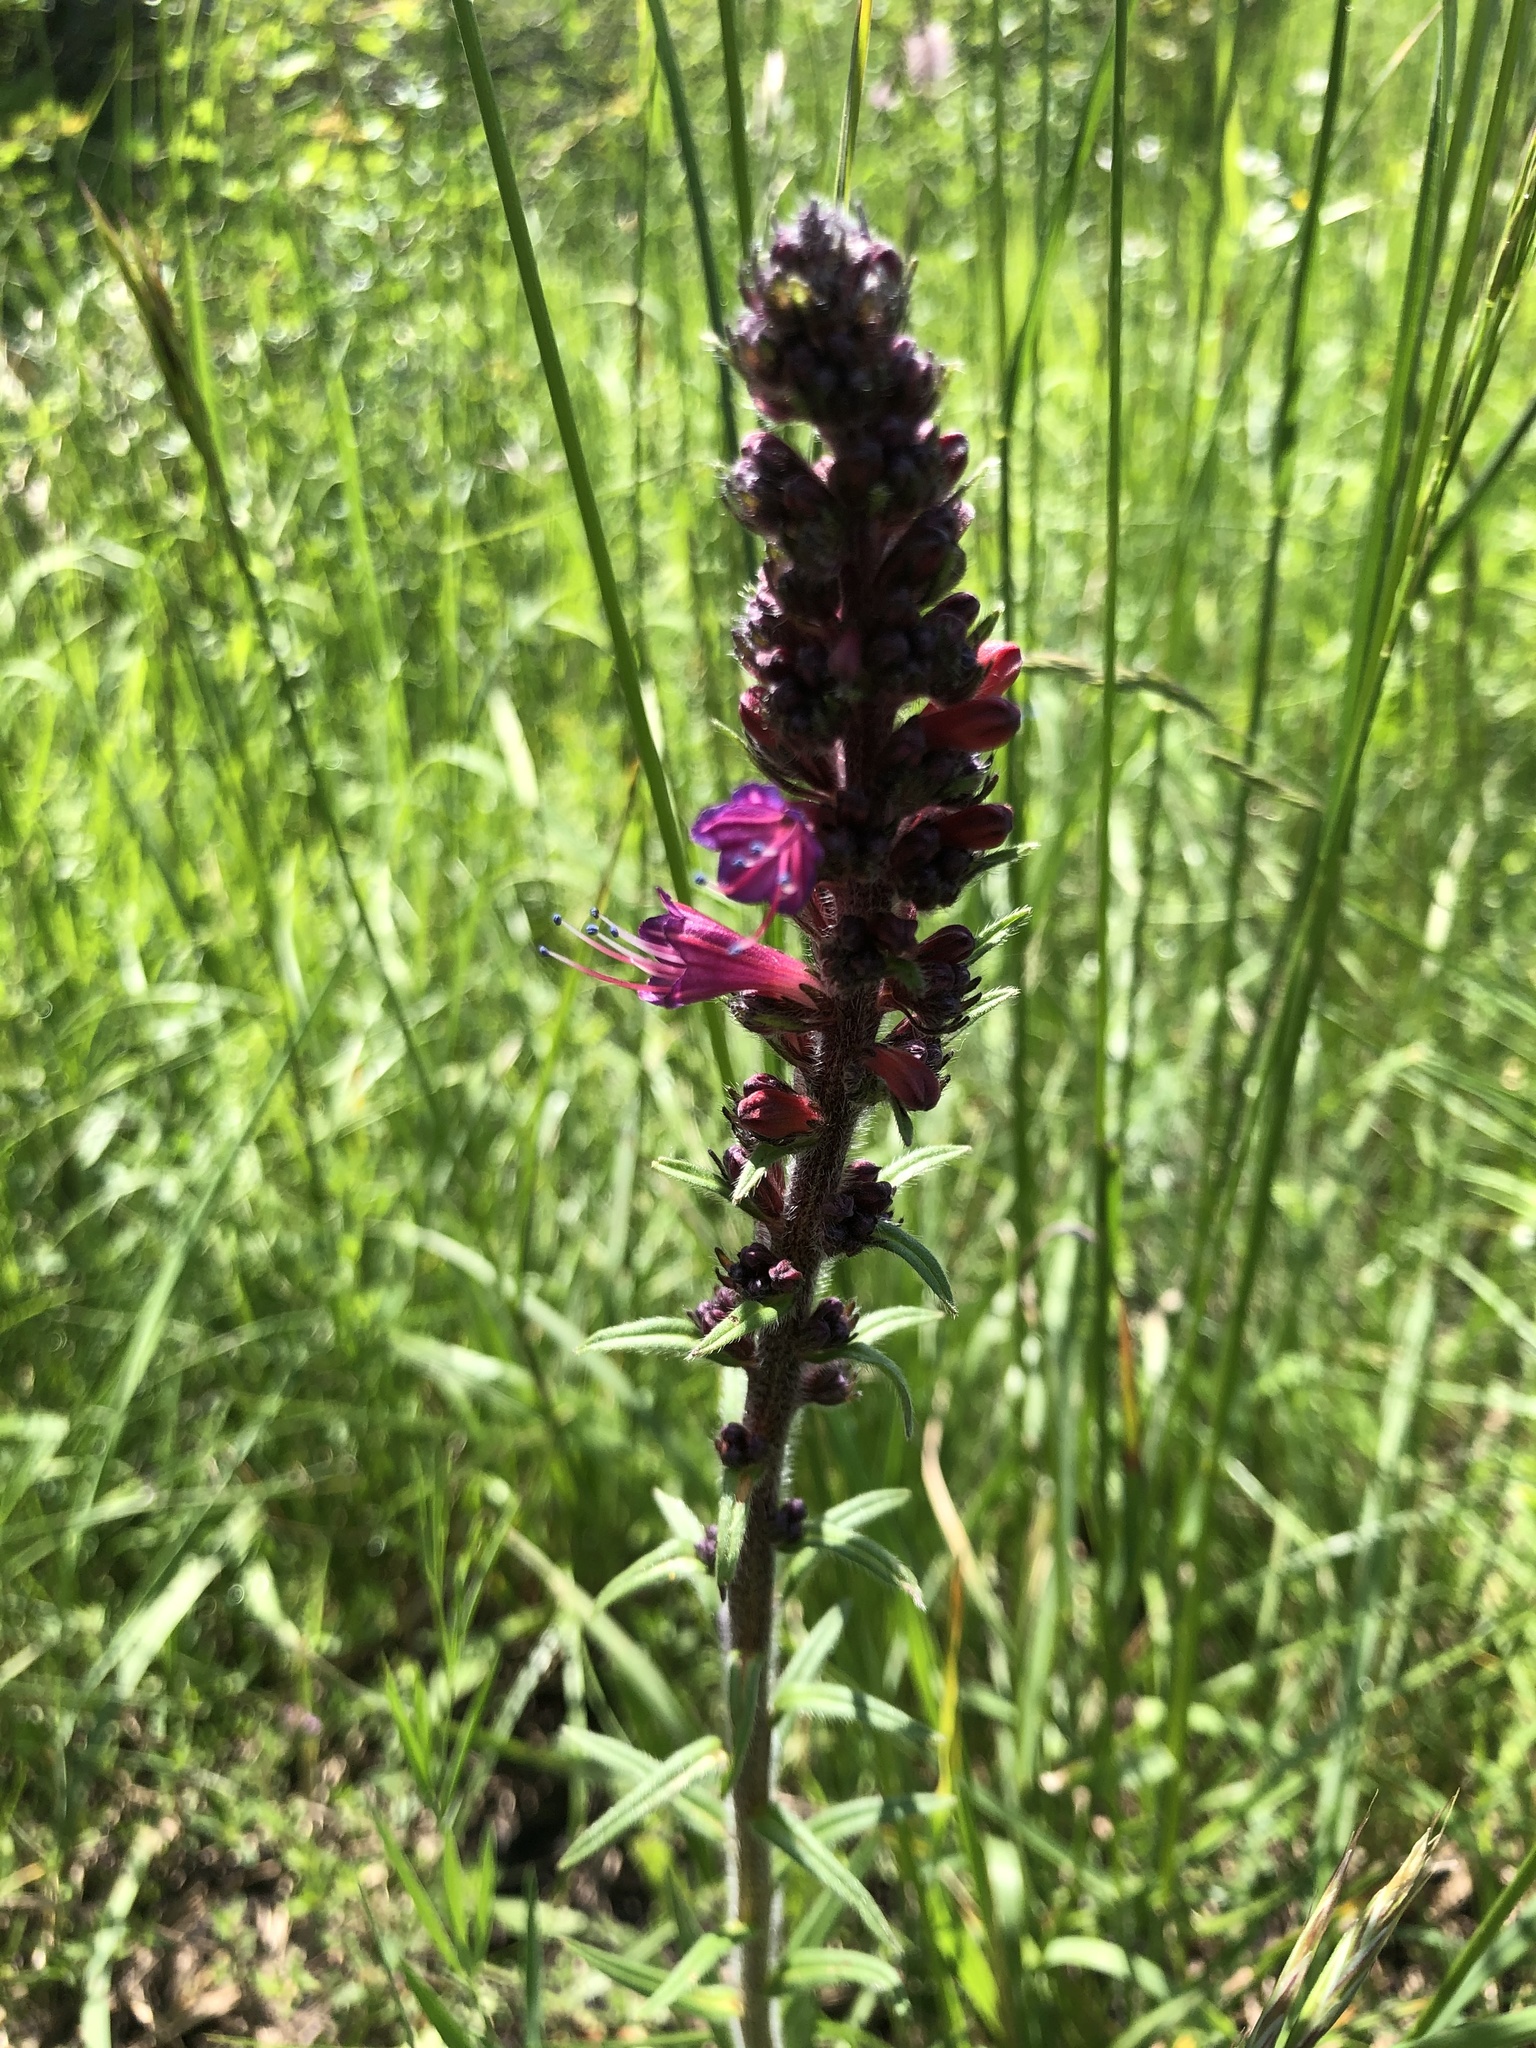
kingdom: Plantae
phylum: Tracheophyta
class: Magnoliopsida
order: Boraginales
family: Boraginaceae
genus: Pontechium
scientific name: Pontechium maculatum
